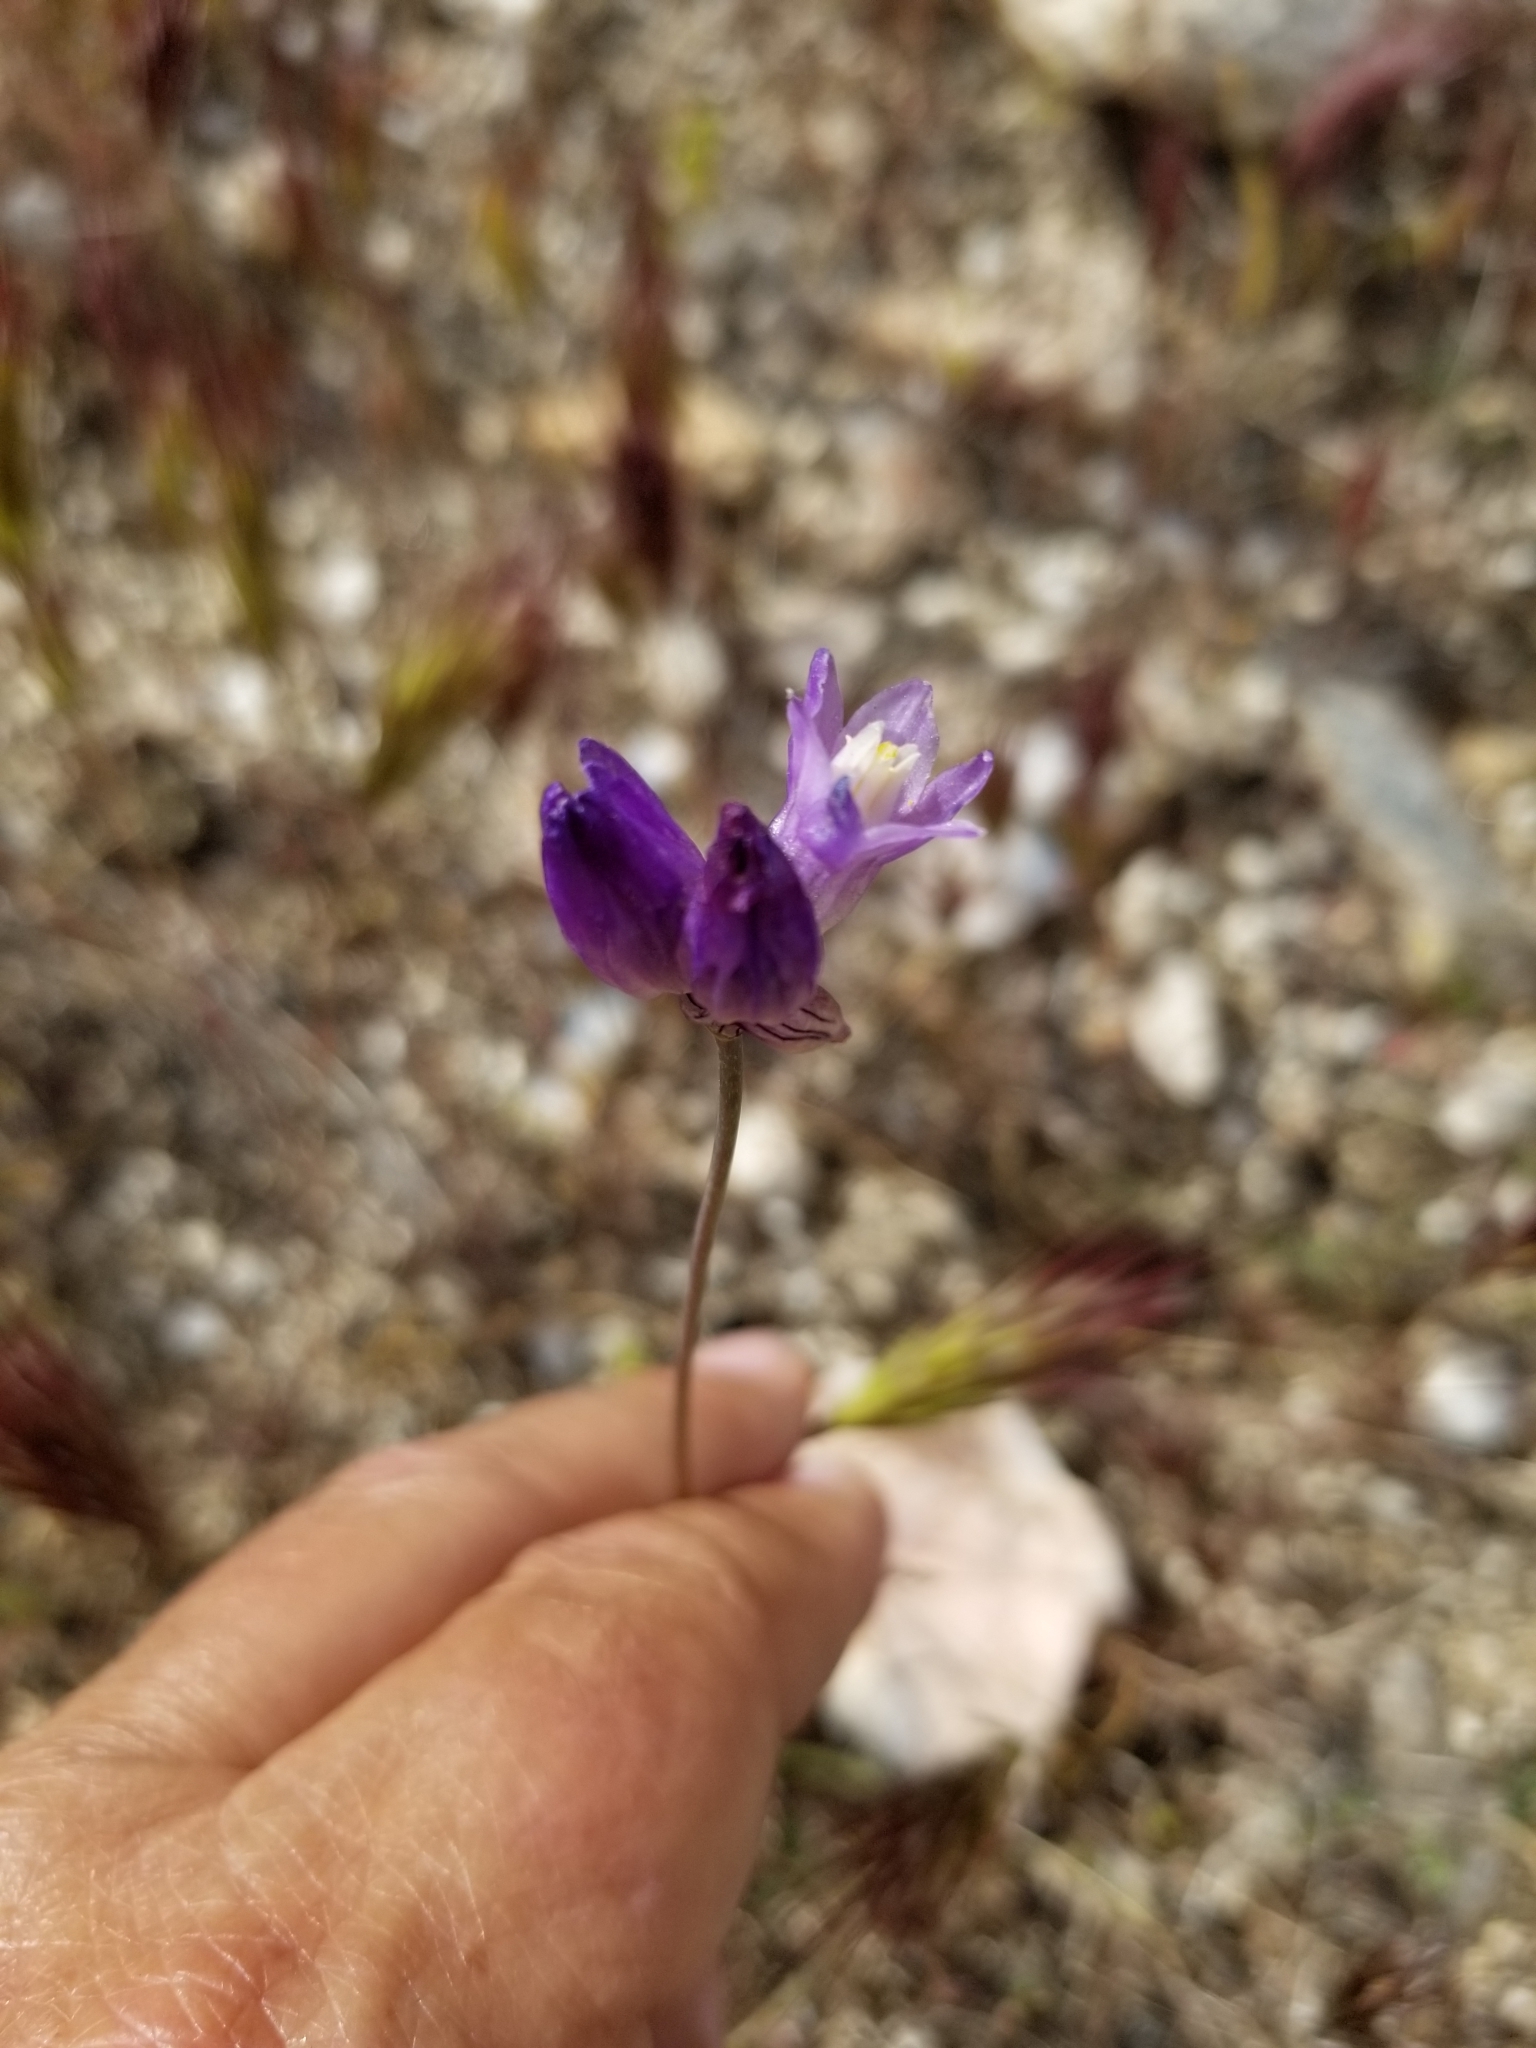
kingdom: Plantae
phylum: Tracheophyta
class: Liliopsida
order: Asparagales
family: Asparagaceae
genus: Dipterostemon
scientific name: Dipterostemon capitatus
